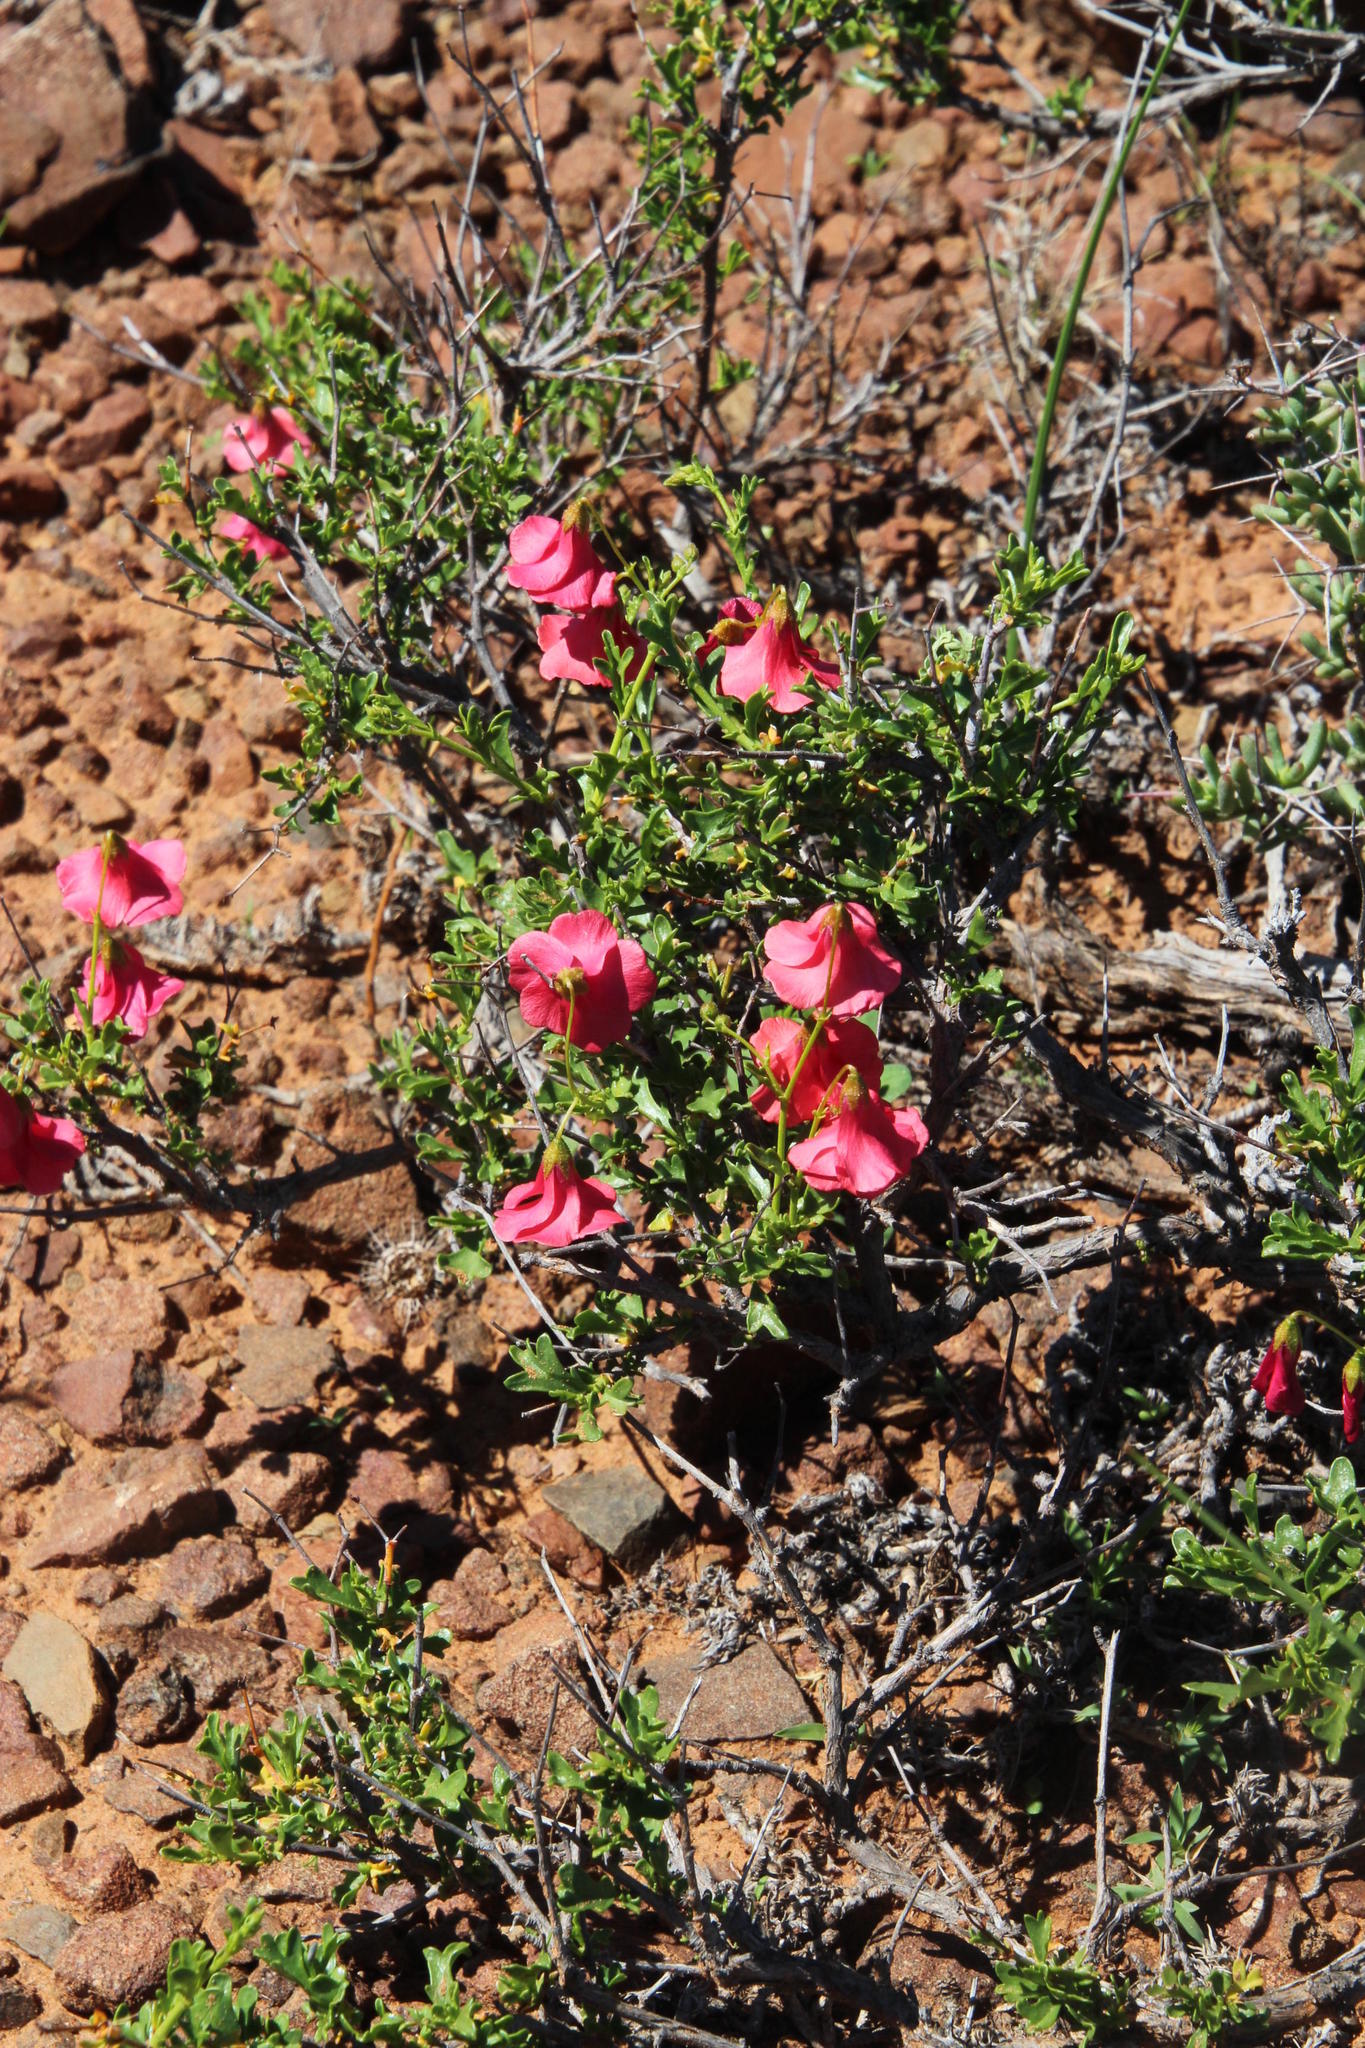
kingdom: Plantae
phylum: Tracheophyta
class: Magnoliopsida
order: Malvales
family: Malvaceae
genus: Hermannia
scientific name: Hermannia grandiflora
